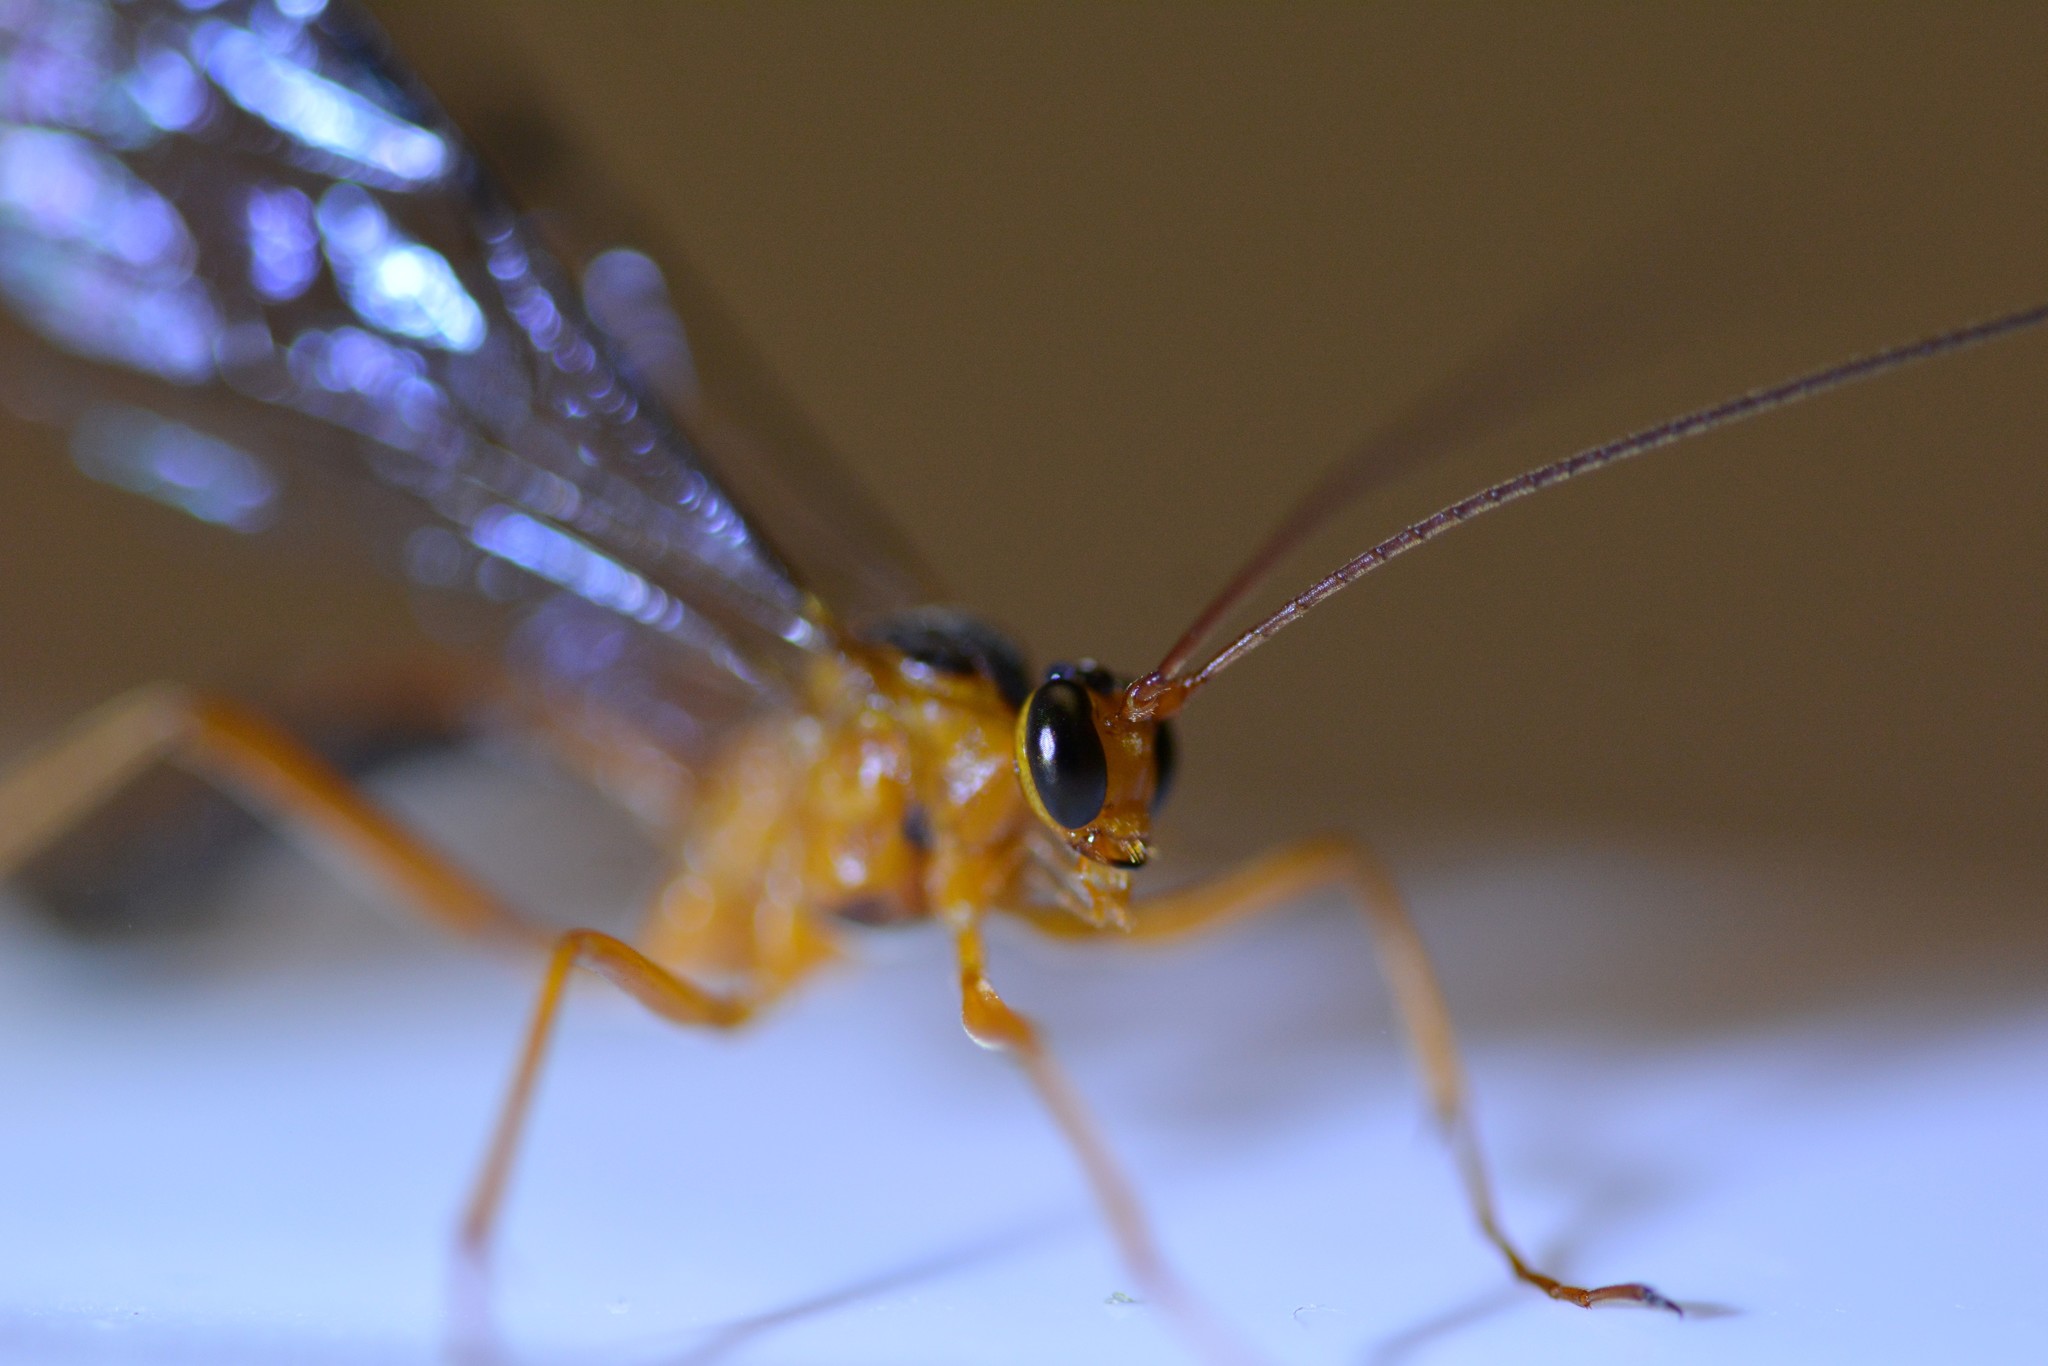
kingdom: Animalia
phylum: Arthropoda
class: Insecta
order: Hymenoptera
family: Ichneumonidae
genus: Netelia
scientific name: Netelia ephippiata
